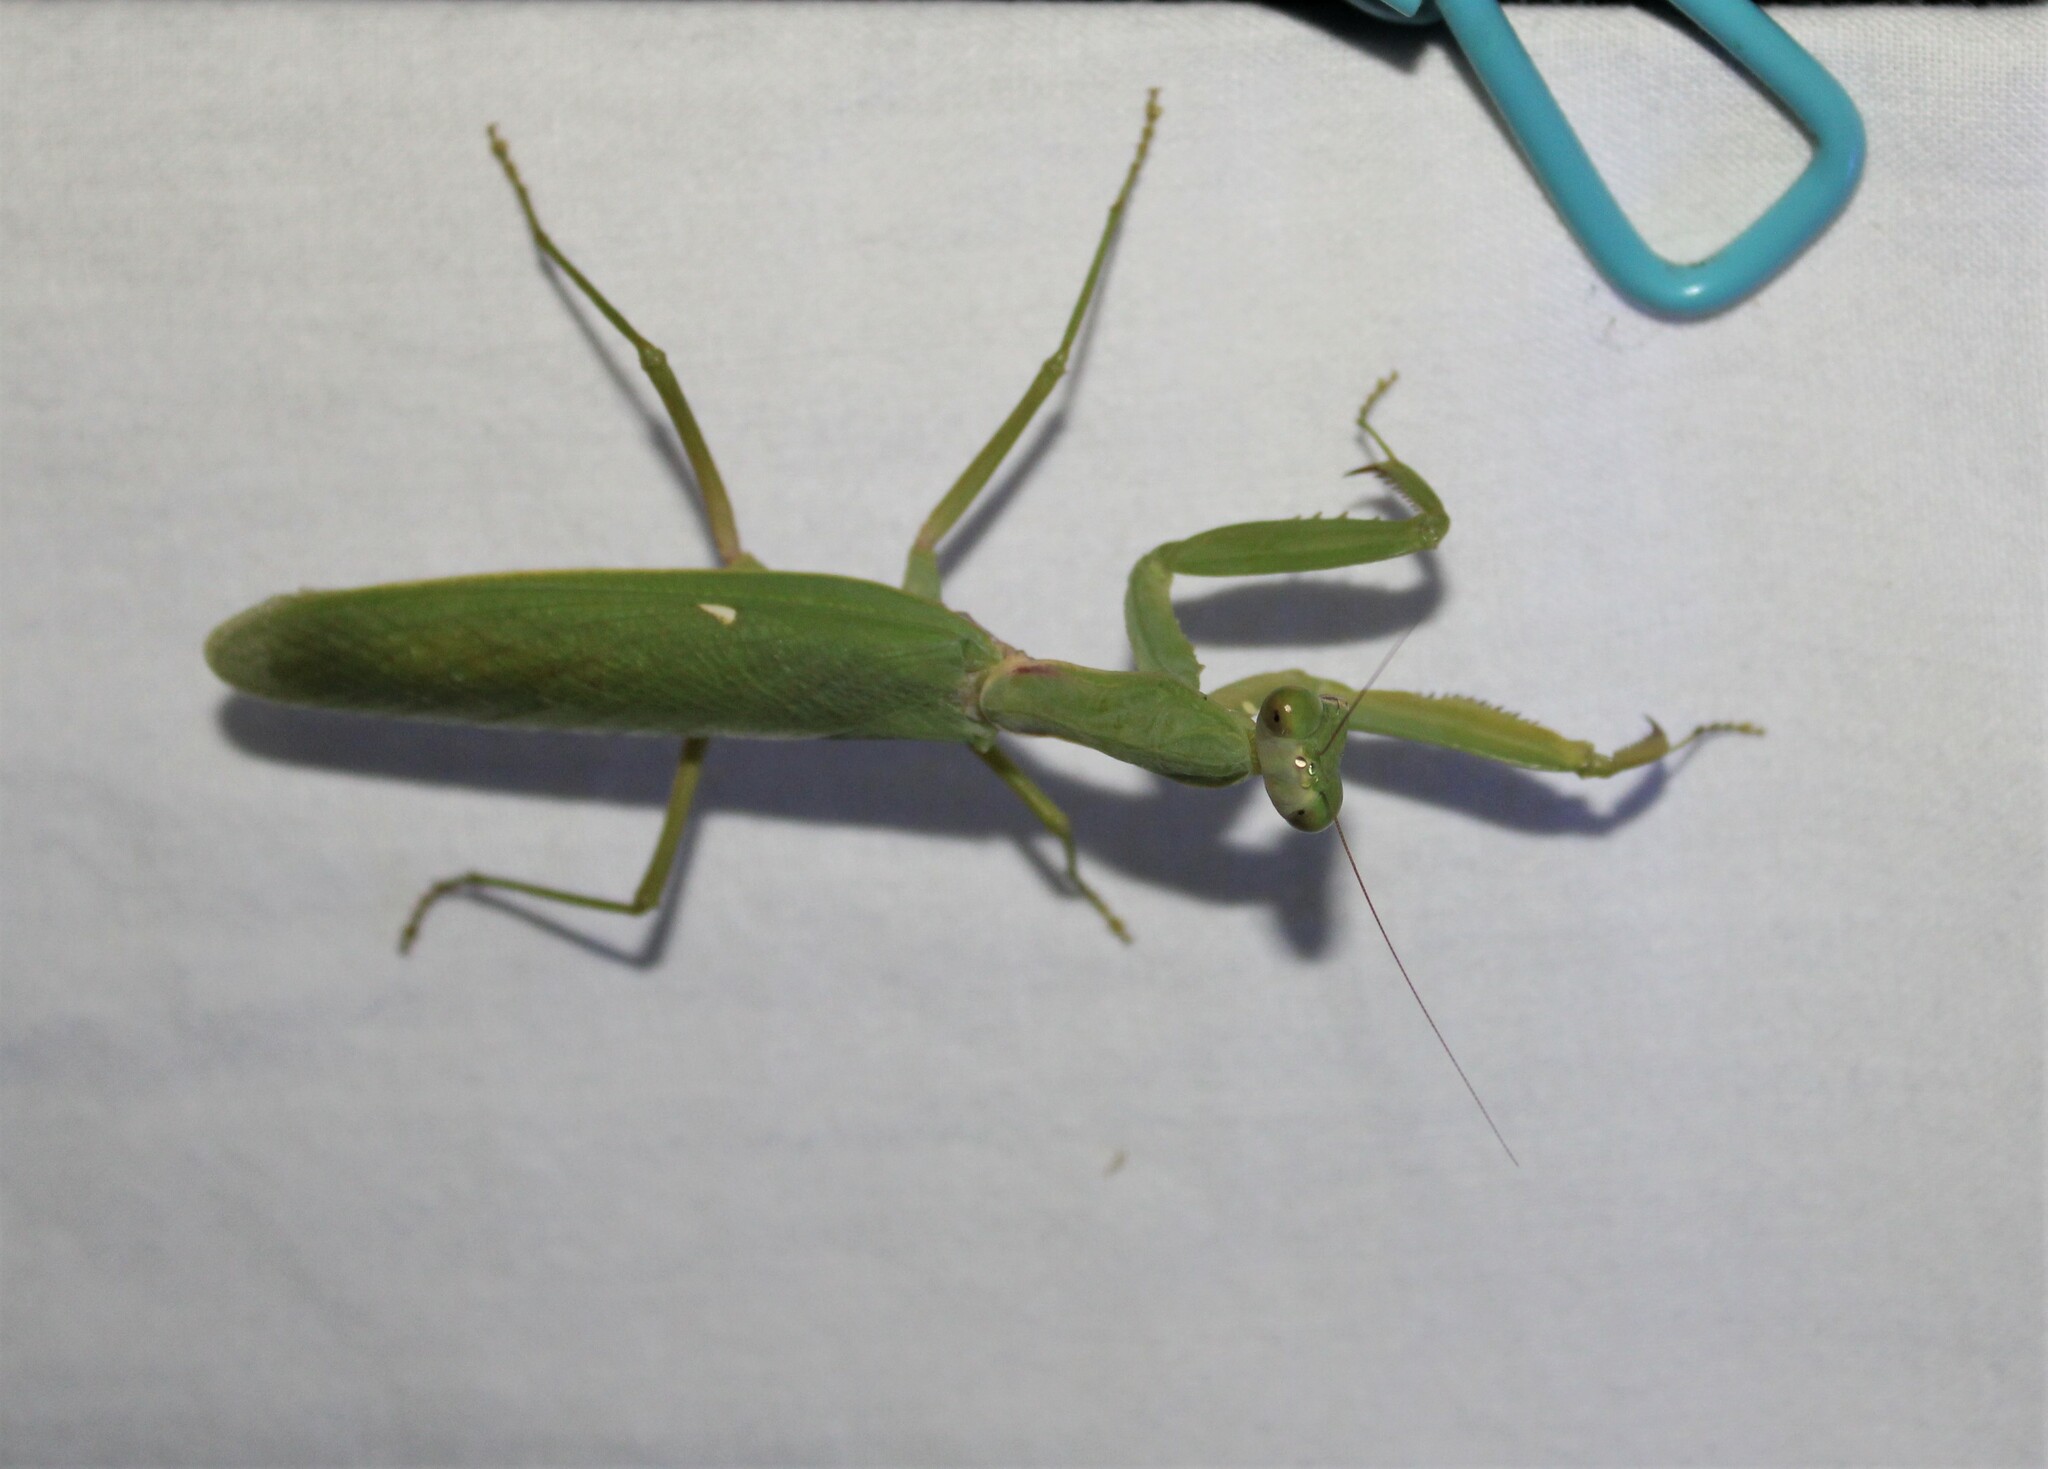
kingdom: Animalia
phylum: Arthropoda
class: Insecta
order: Mantodea
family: Mantidae
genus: Hierodula
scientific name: Hierodula patellifera
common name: Asian mantis
